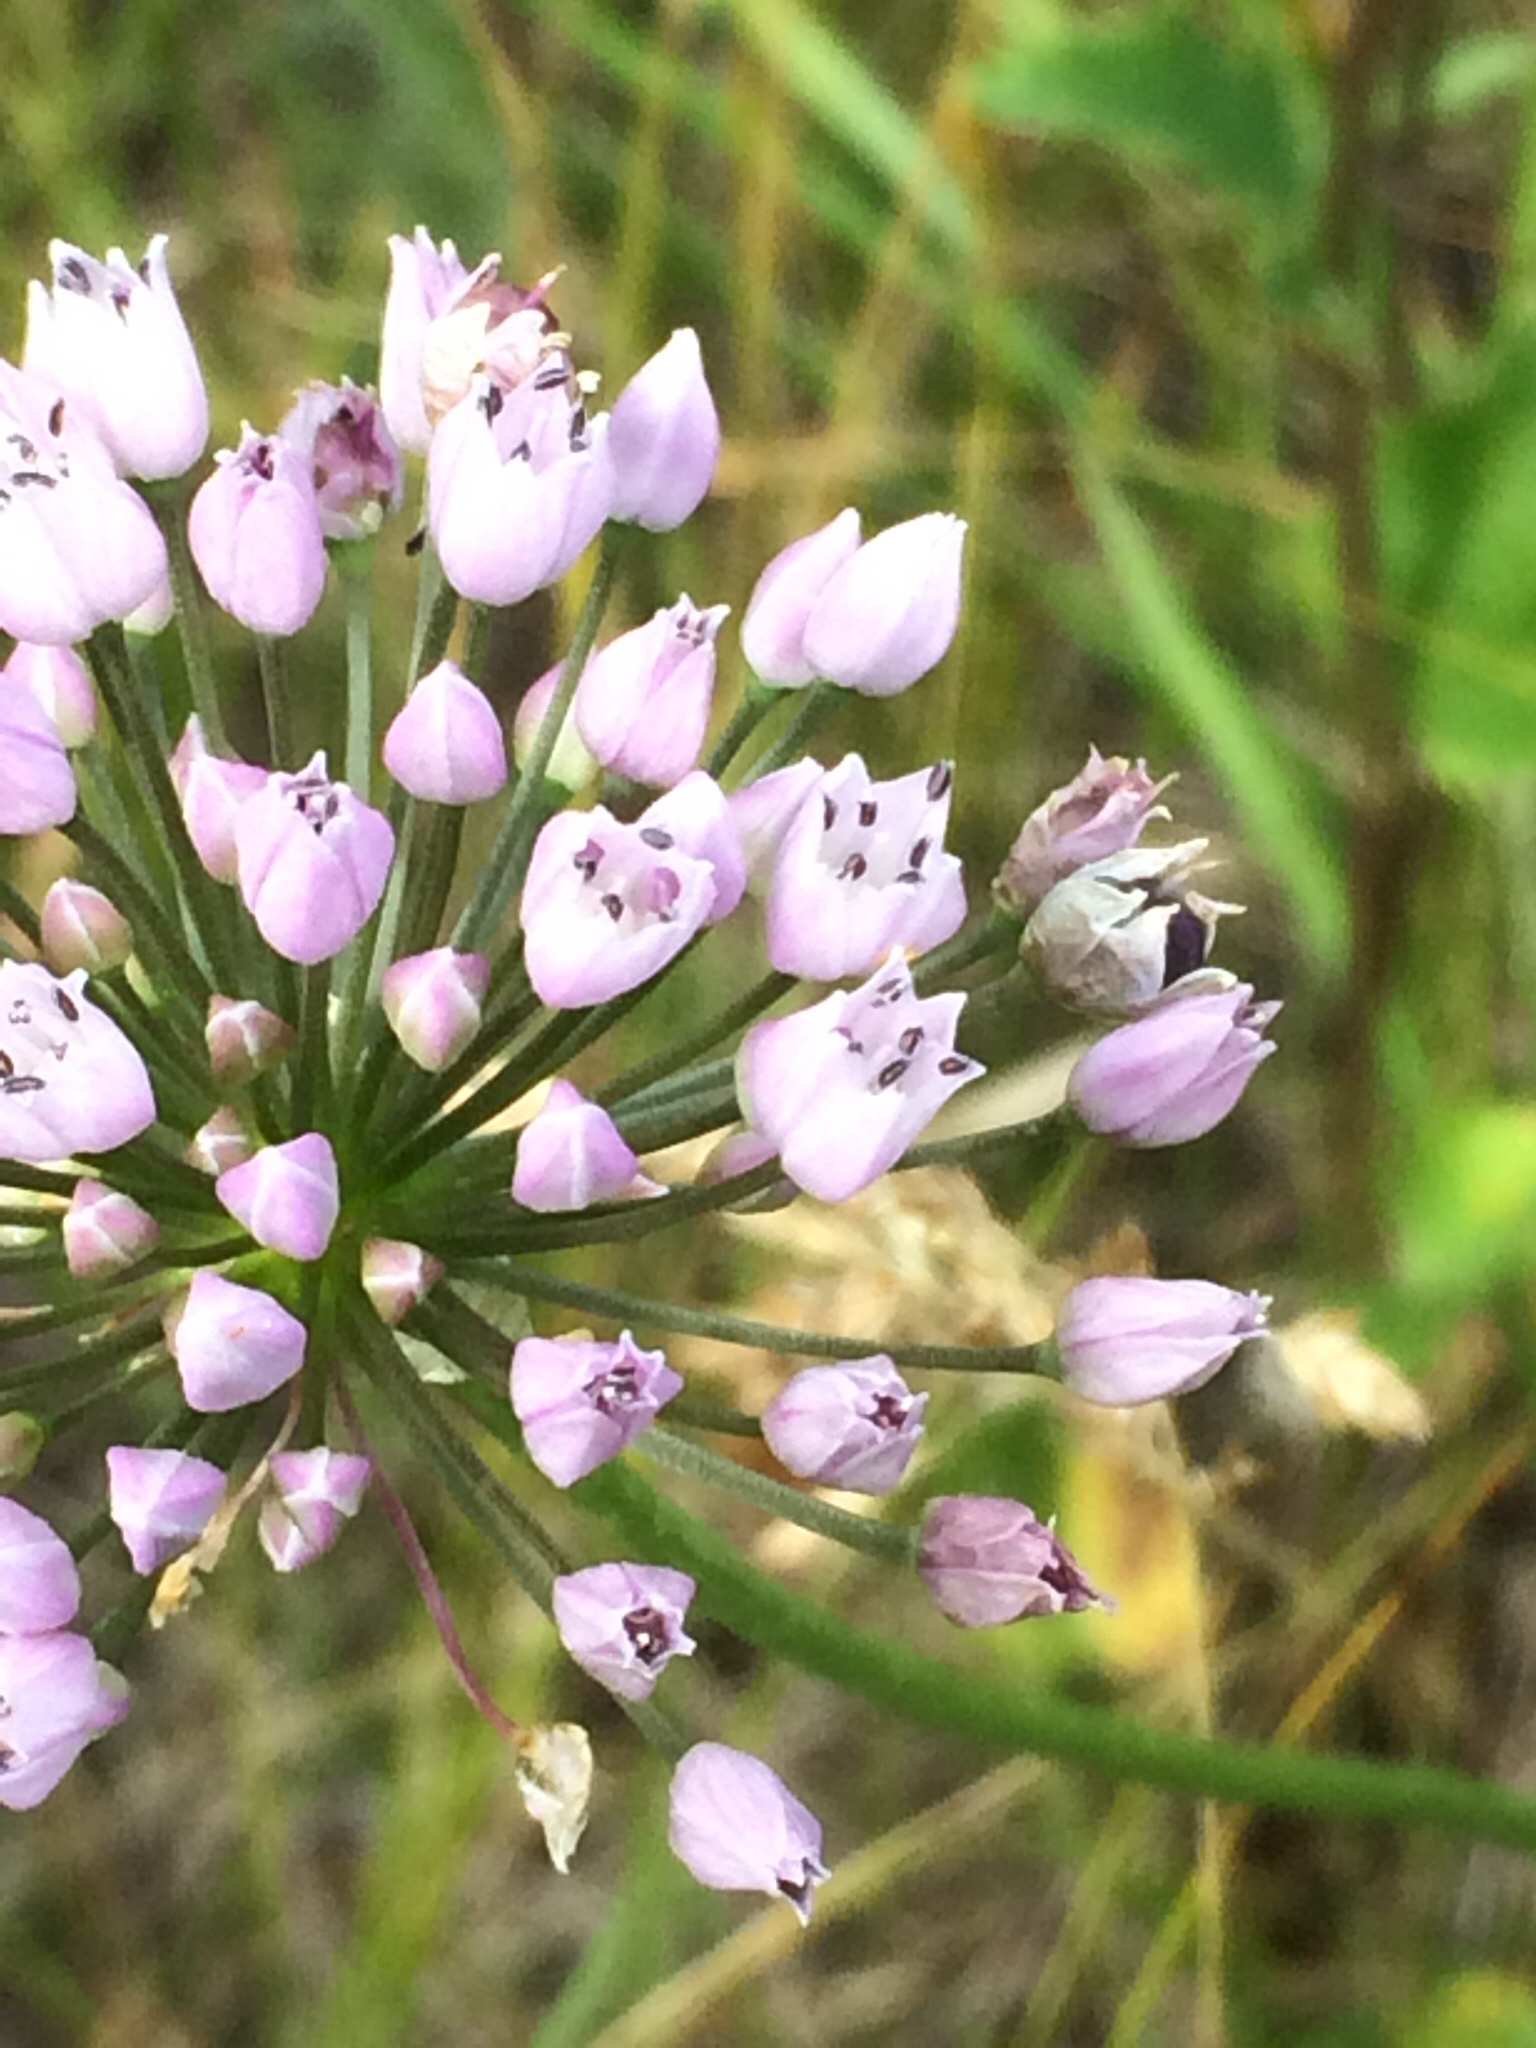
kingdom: Plantae
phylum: Tracheophyta
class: Liliopsida
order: Asparagales
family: Amaryllidaceae
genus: Allium
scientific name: Allium angulosum
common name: Mouse garlic
